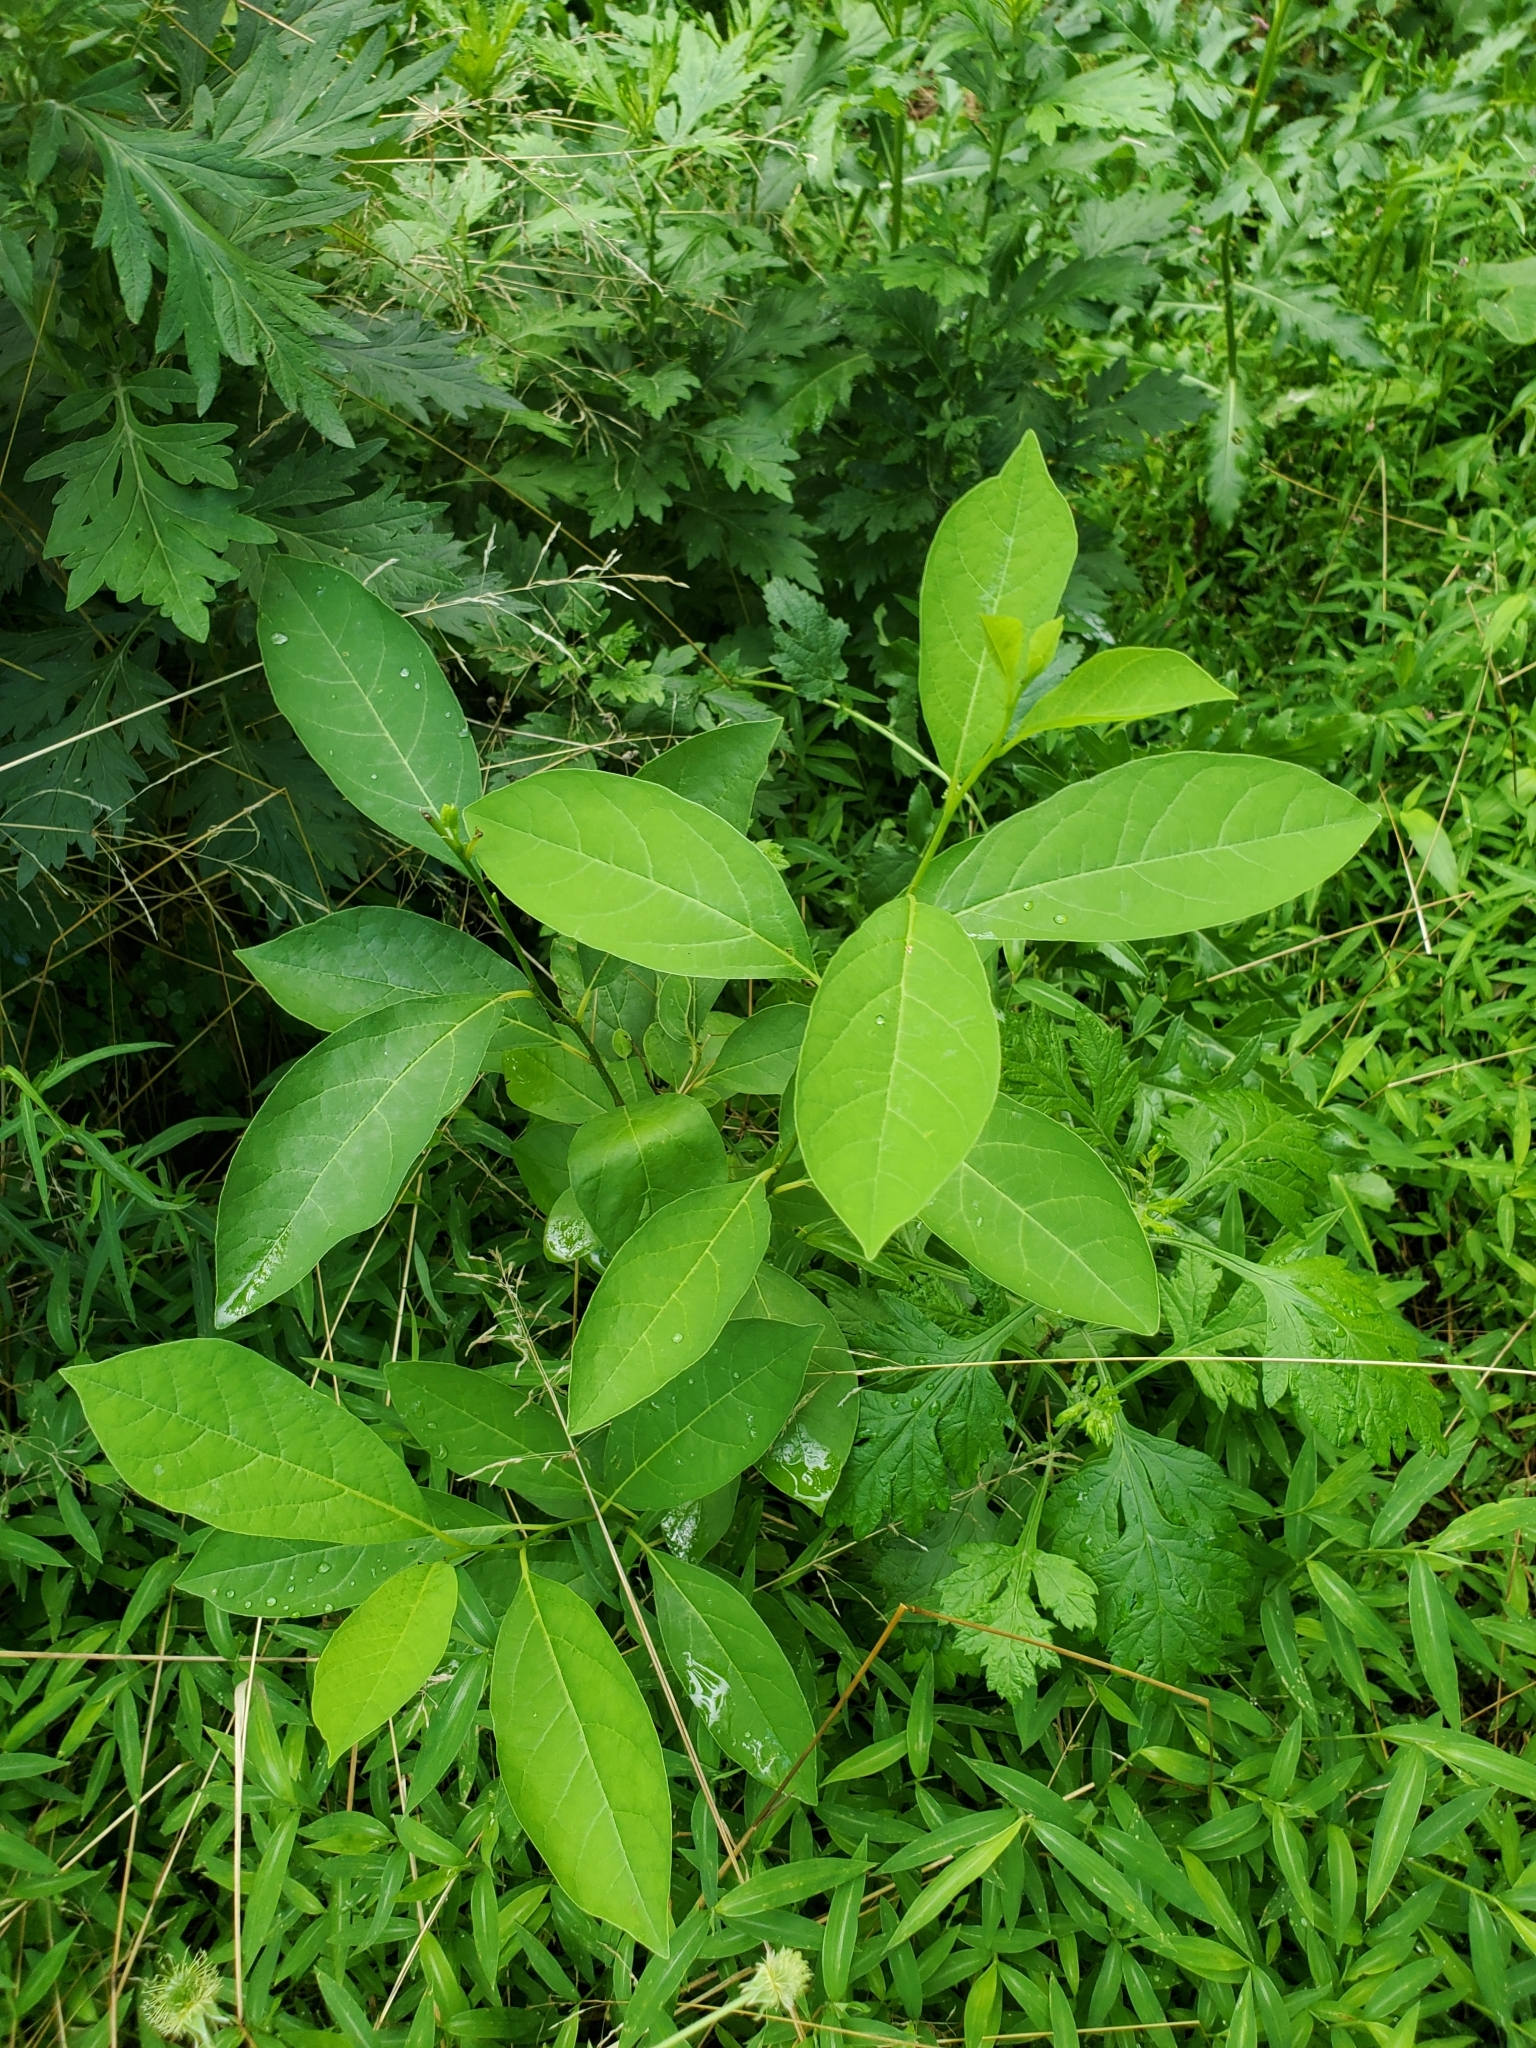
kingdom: Plantae
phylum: Tracheophyta
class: Magnoliopsida
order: Laurales
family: Lauraceae
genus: Lindera
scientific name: Lindera benzoin
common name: Spicebush
